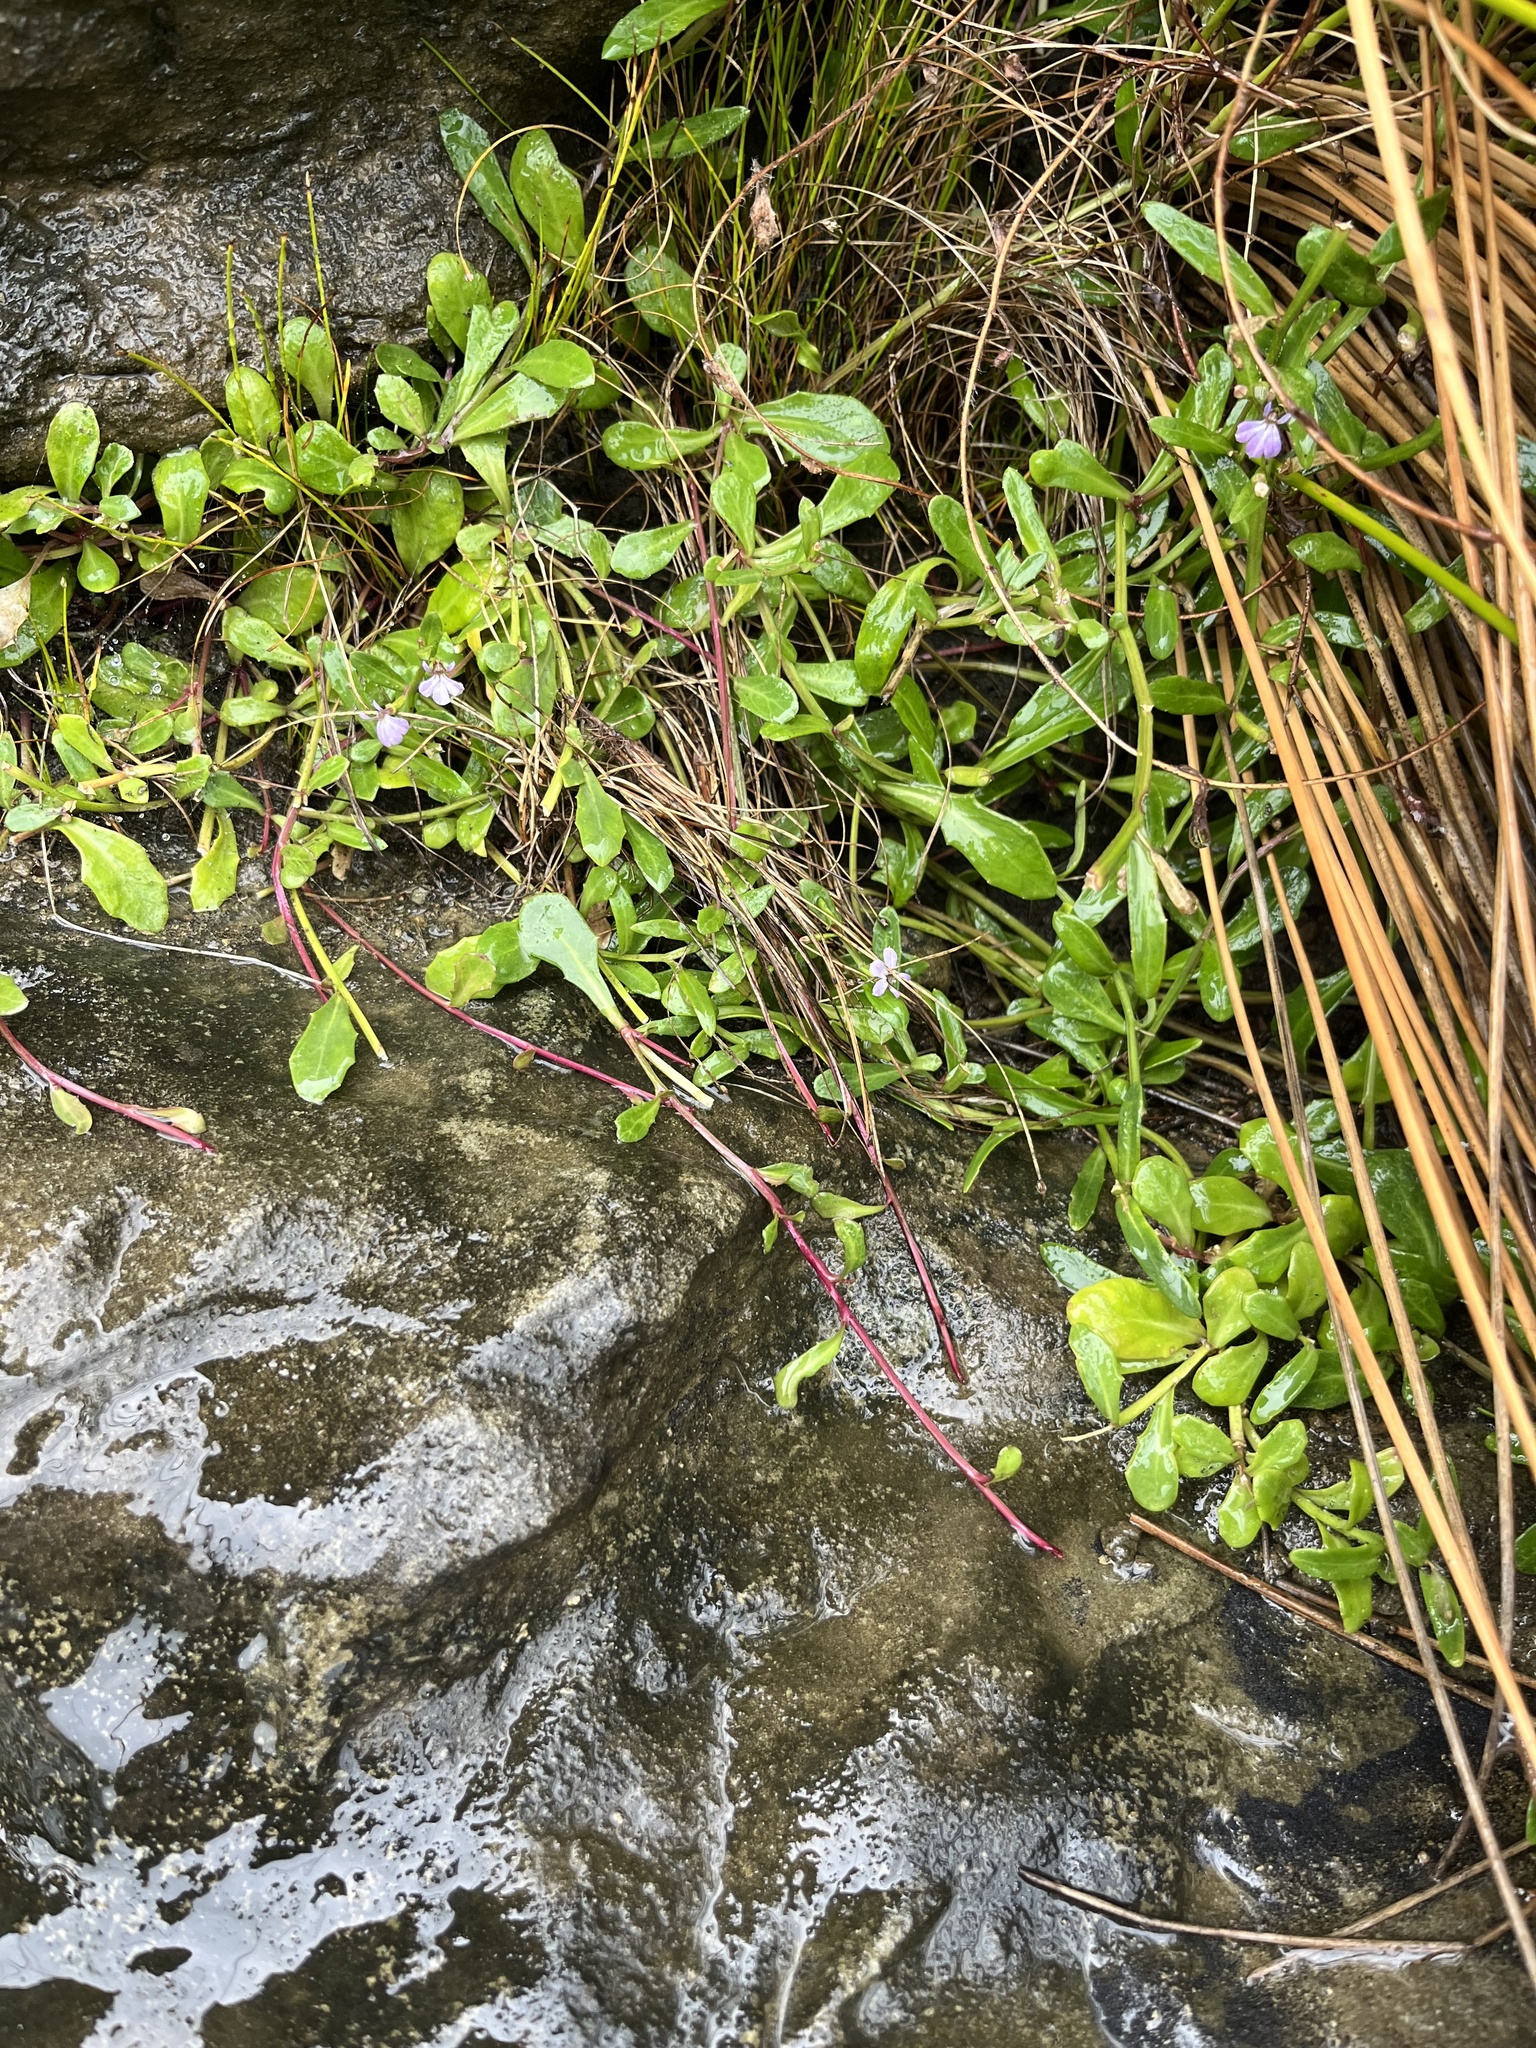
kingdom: Plantae
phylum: Tracheophyta
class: Magnoliopsida
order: Asterales
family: Campanulaceae
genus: Lobelia
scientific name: Lobelia anceps
